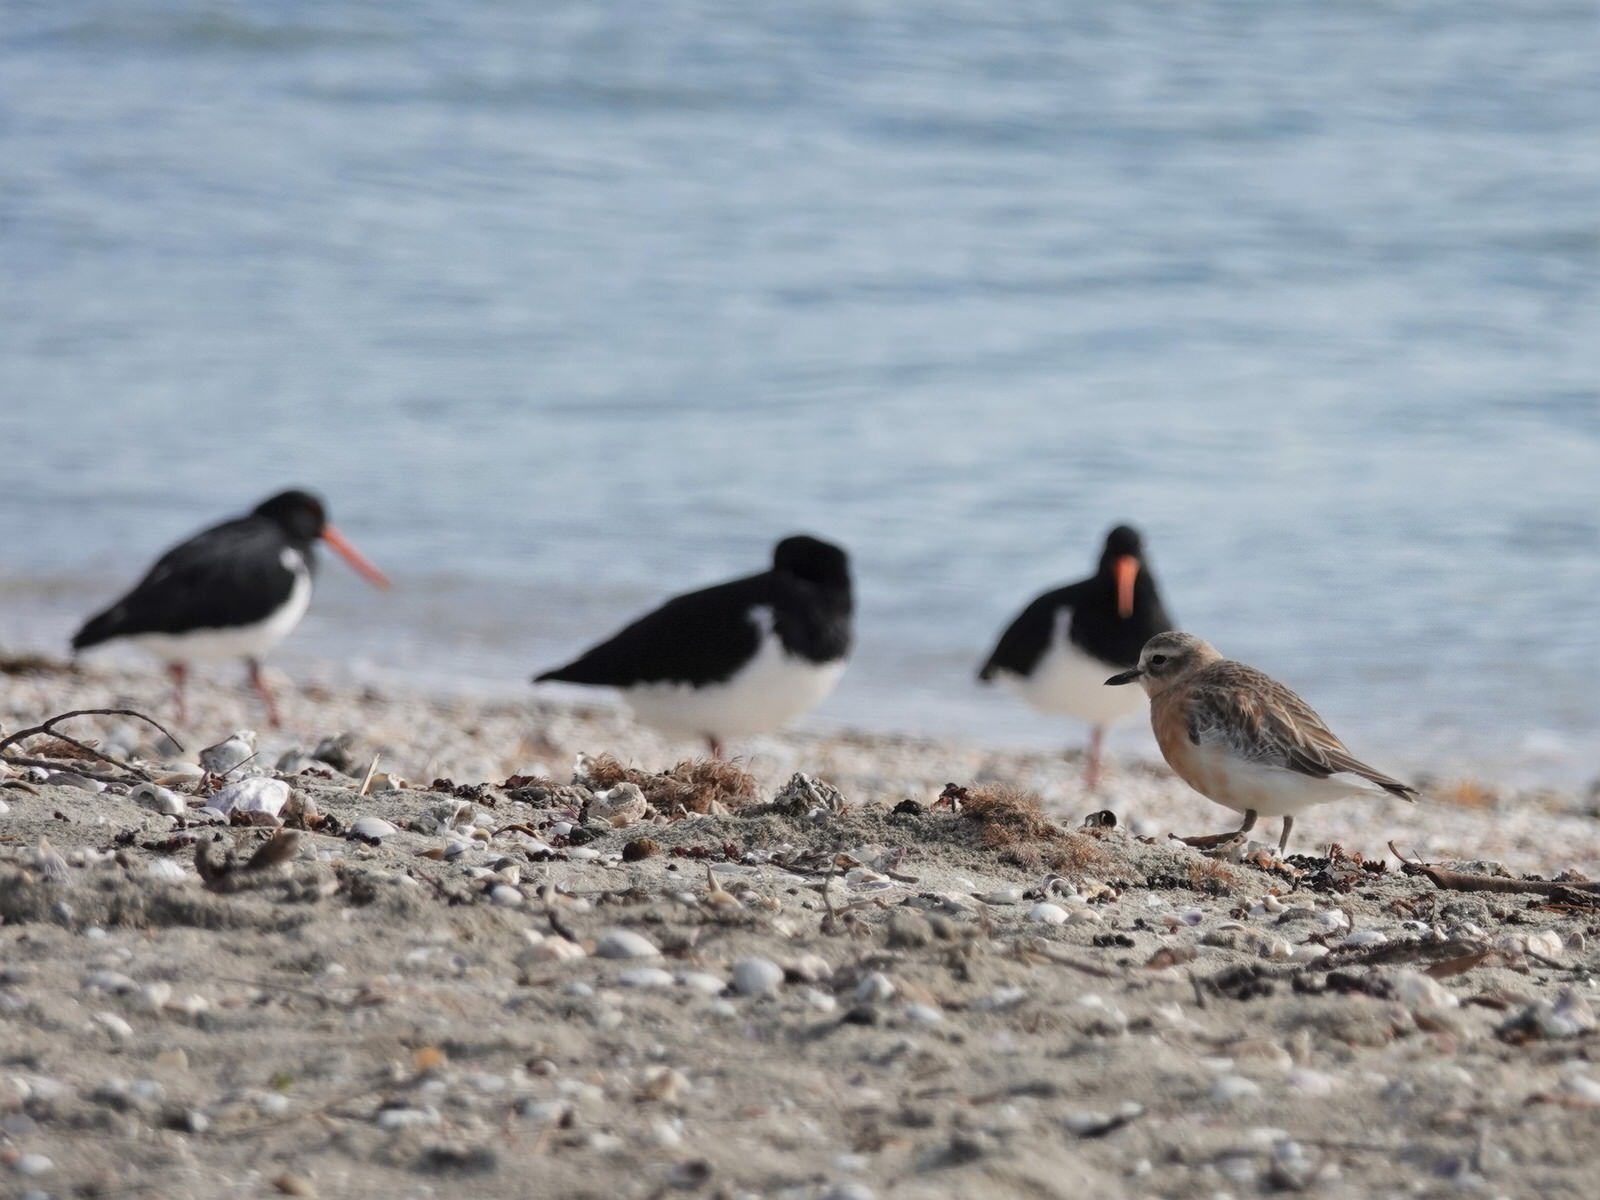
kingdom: Animalia
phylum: Chordata
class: Aves
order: Charadriiformes
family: Charadriidae
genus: Anarhynchus
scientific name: Anarhynchus
